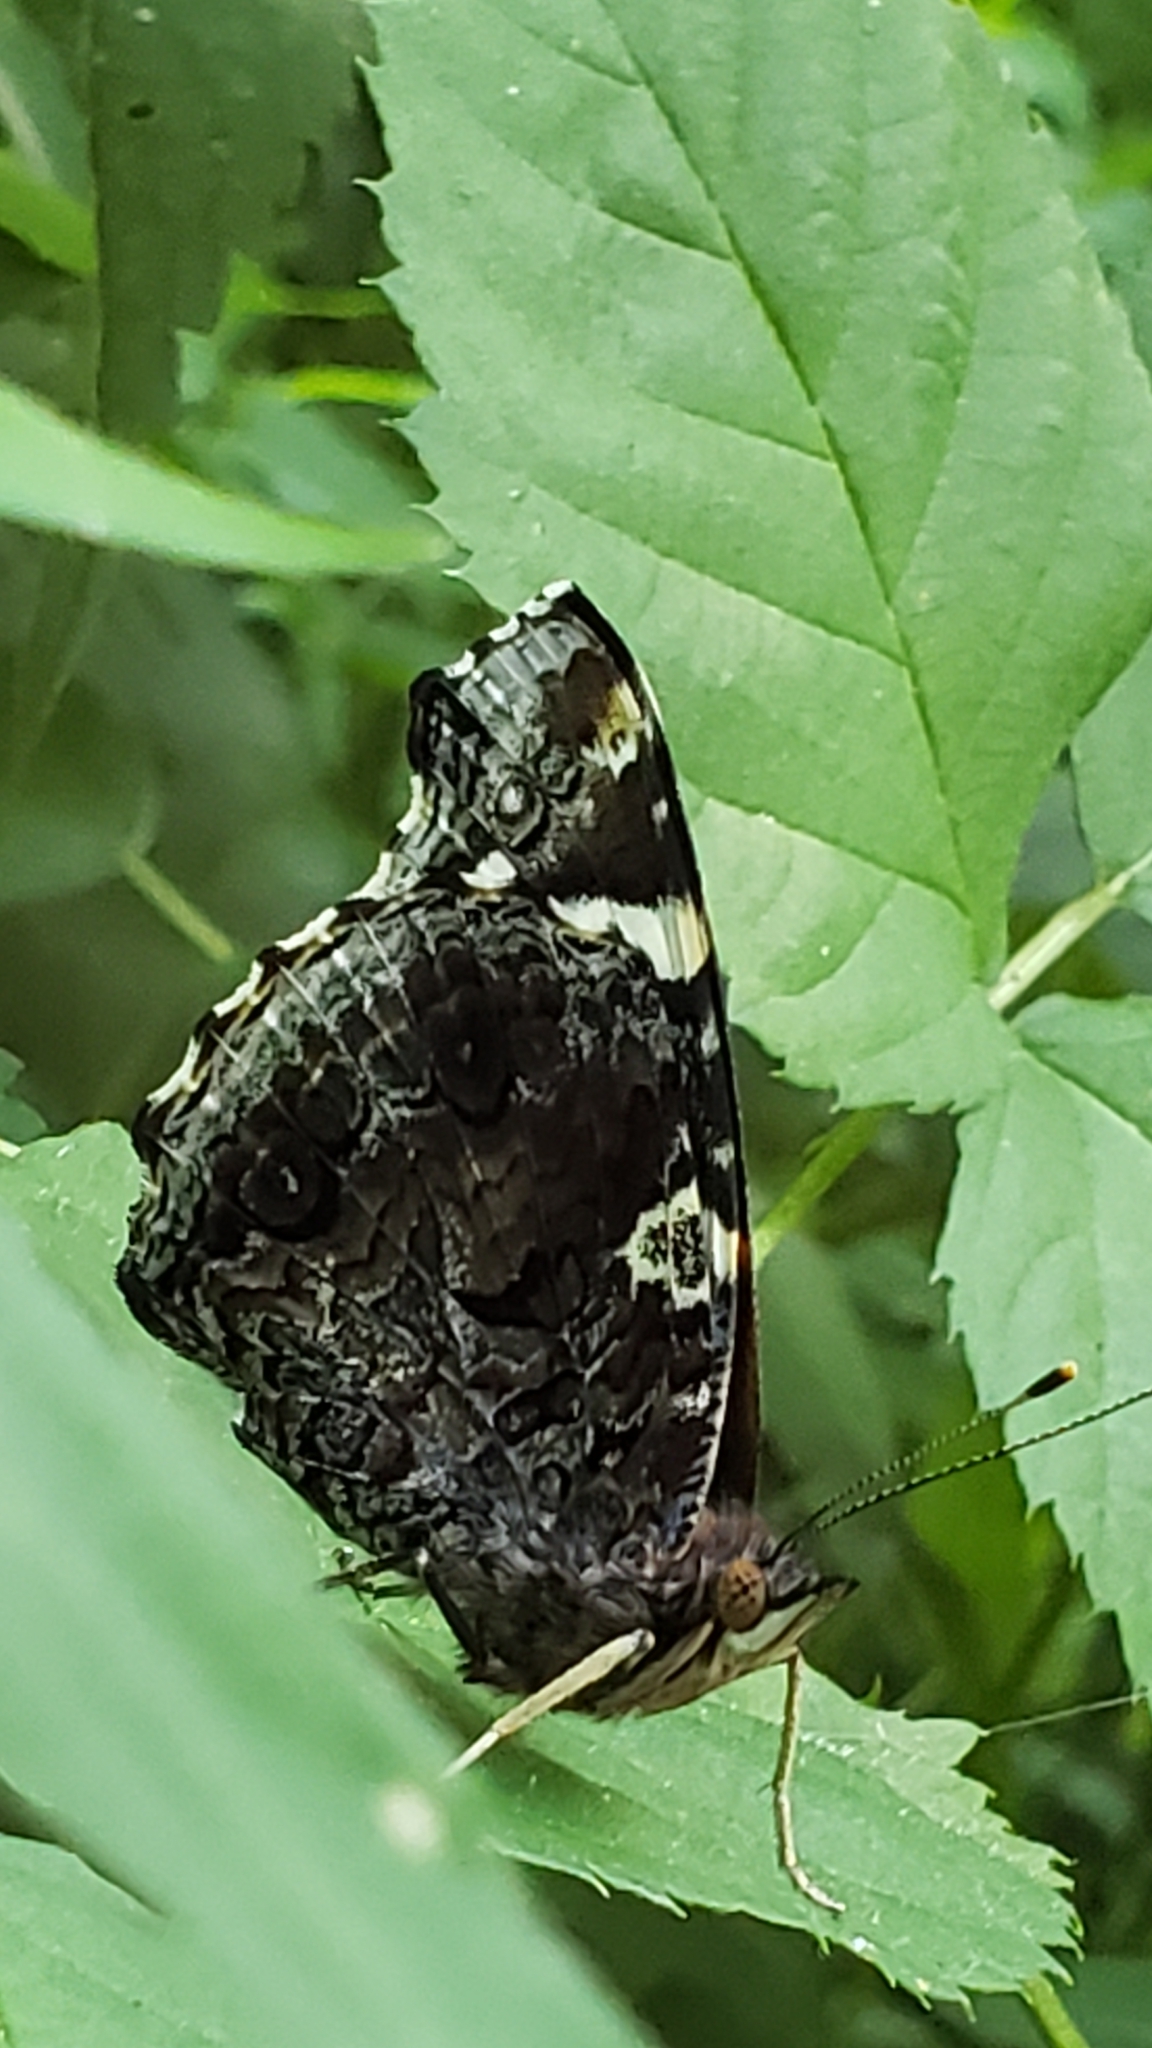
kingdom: Animalia
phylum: Arthropoda
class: Insecta
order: Lepidoptera
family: Nymphalidae
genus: Vanessa
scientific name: Vanessa atalanta
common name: Red admiral
